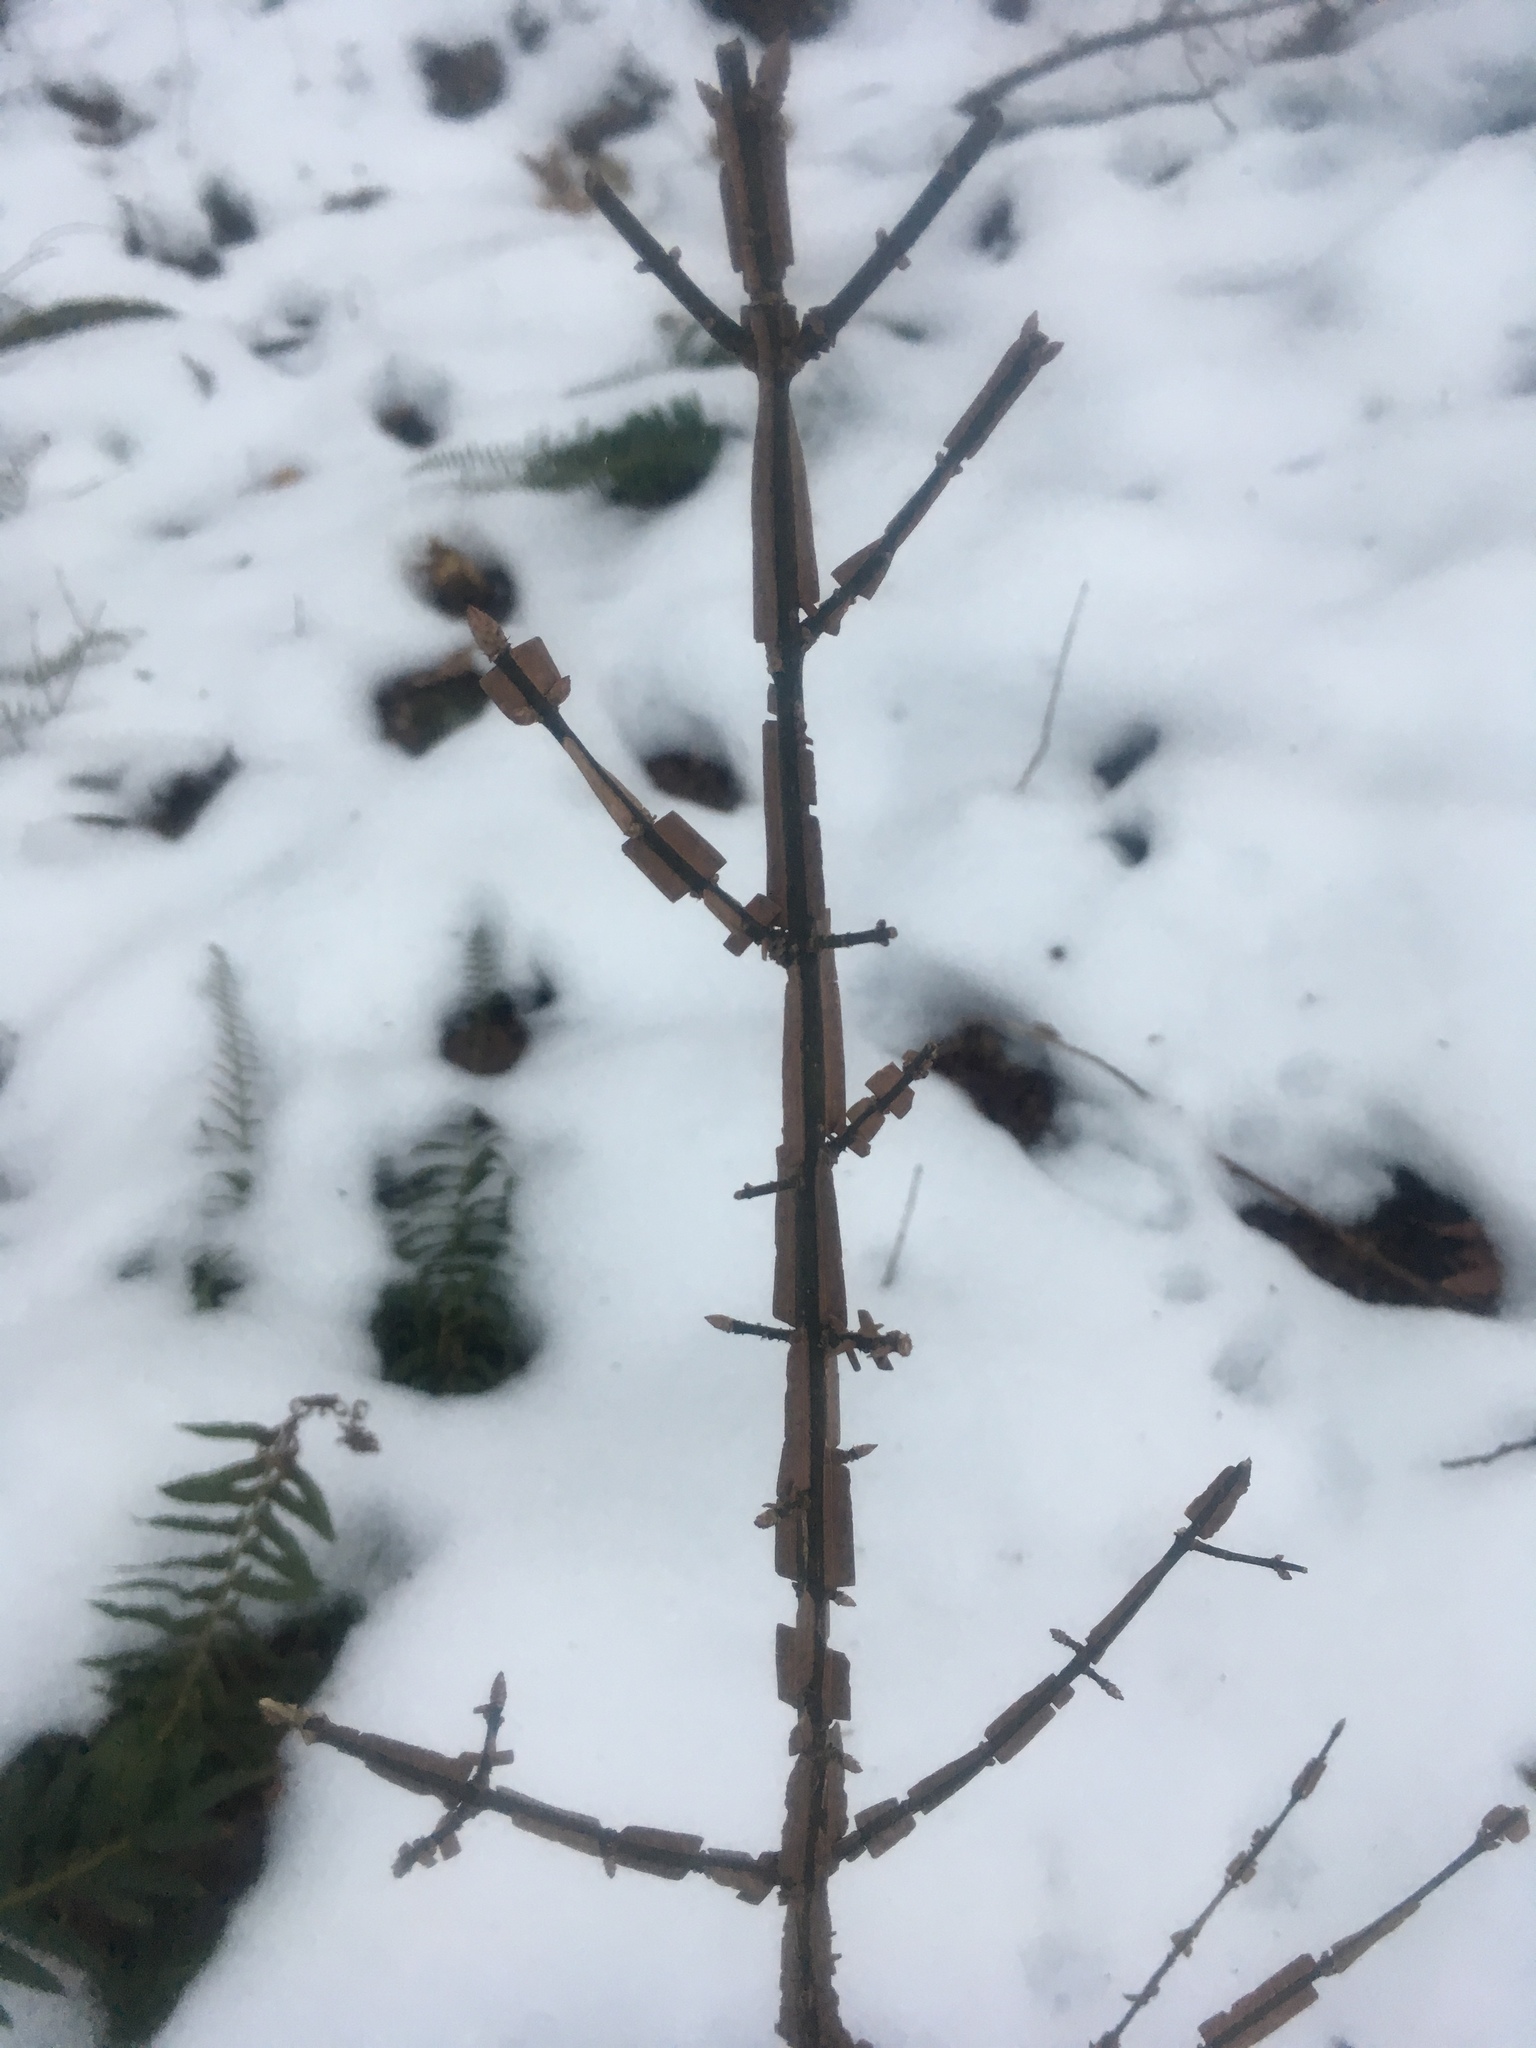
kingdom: Plantae
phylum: Tracheophyta
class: Magnoliopsida
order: Celastrales
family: Celastraceae
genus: Euonymus
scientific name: Euonymus alatus
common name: Winged euonymus
